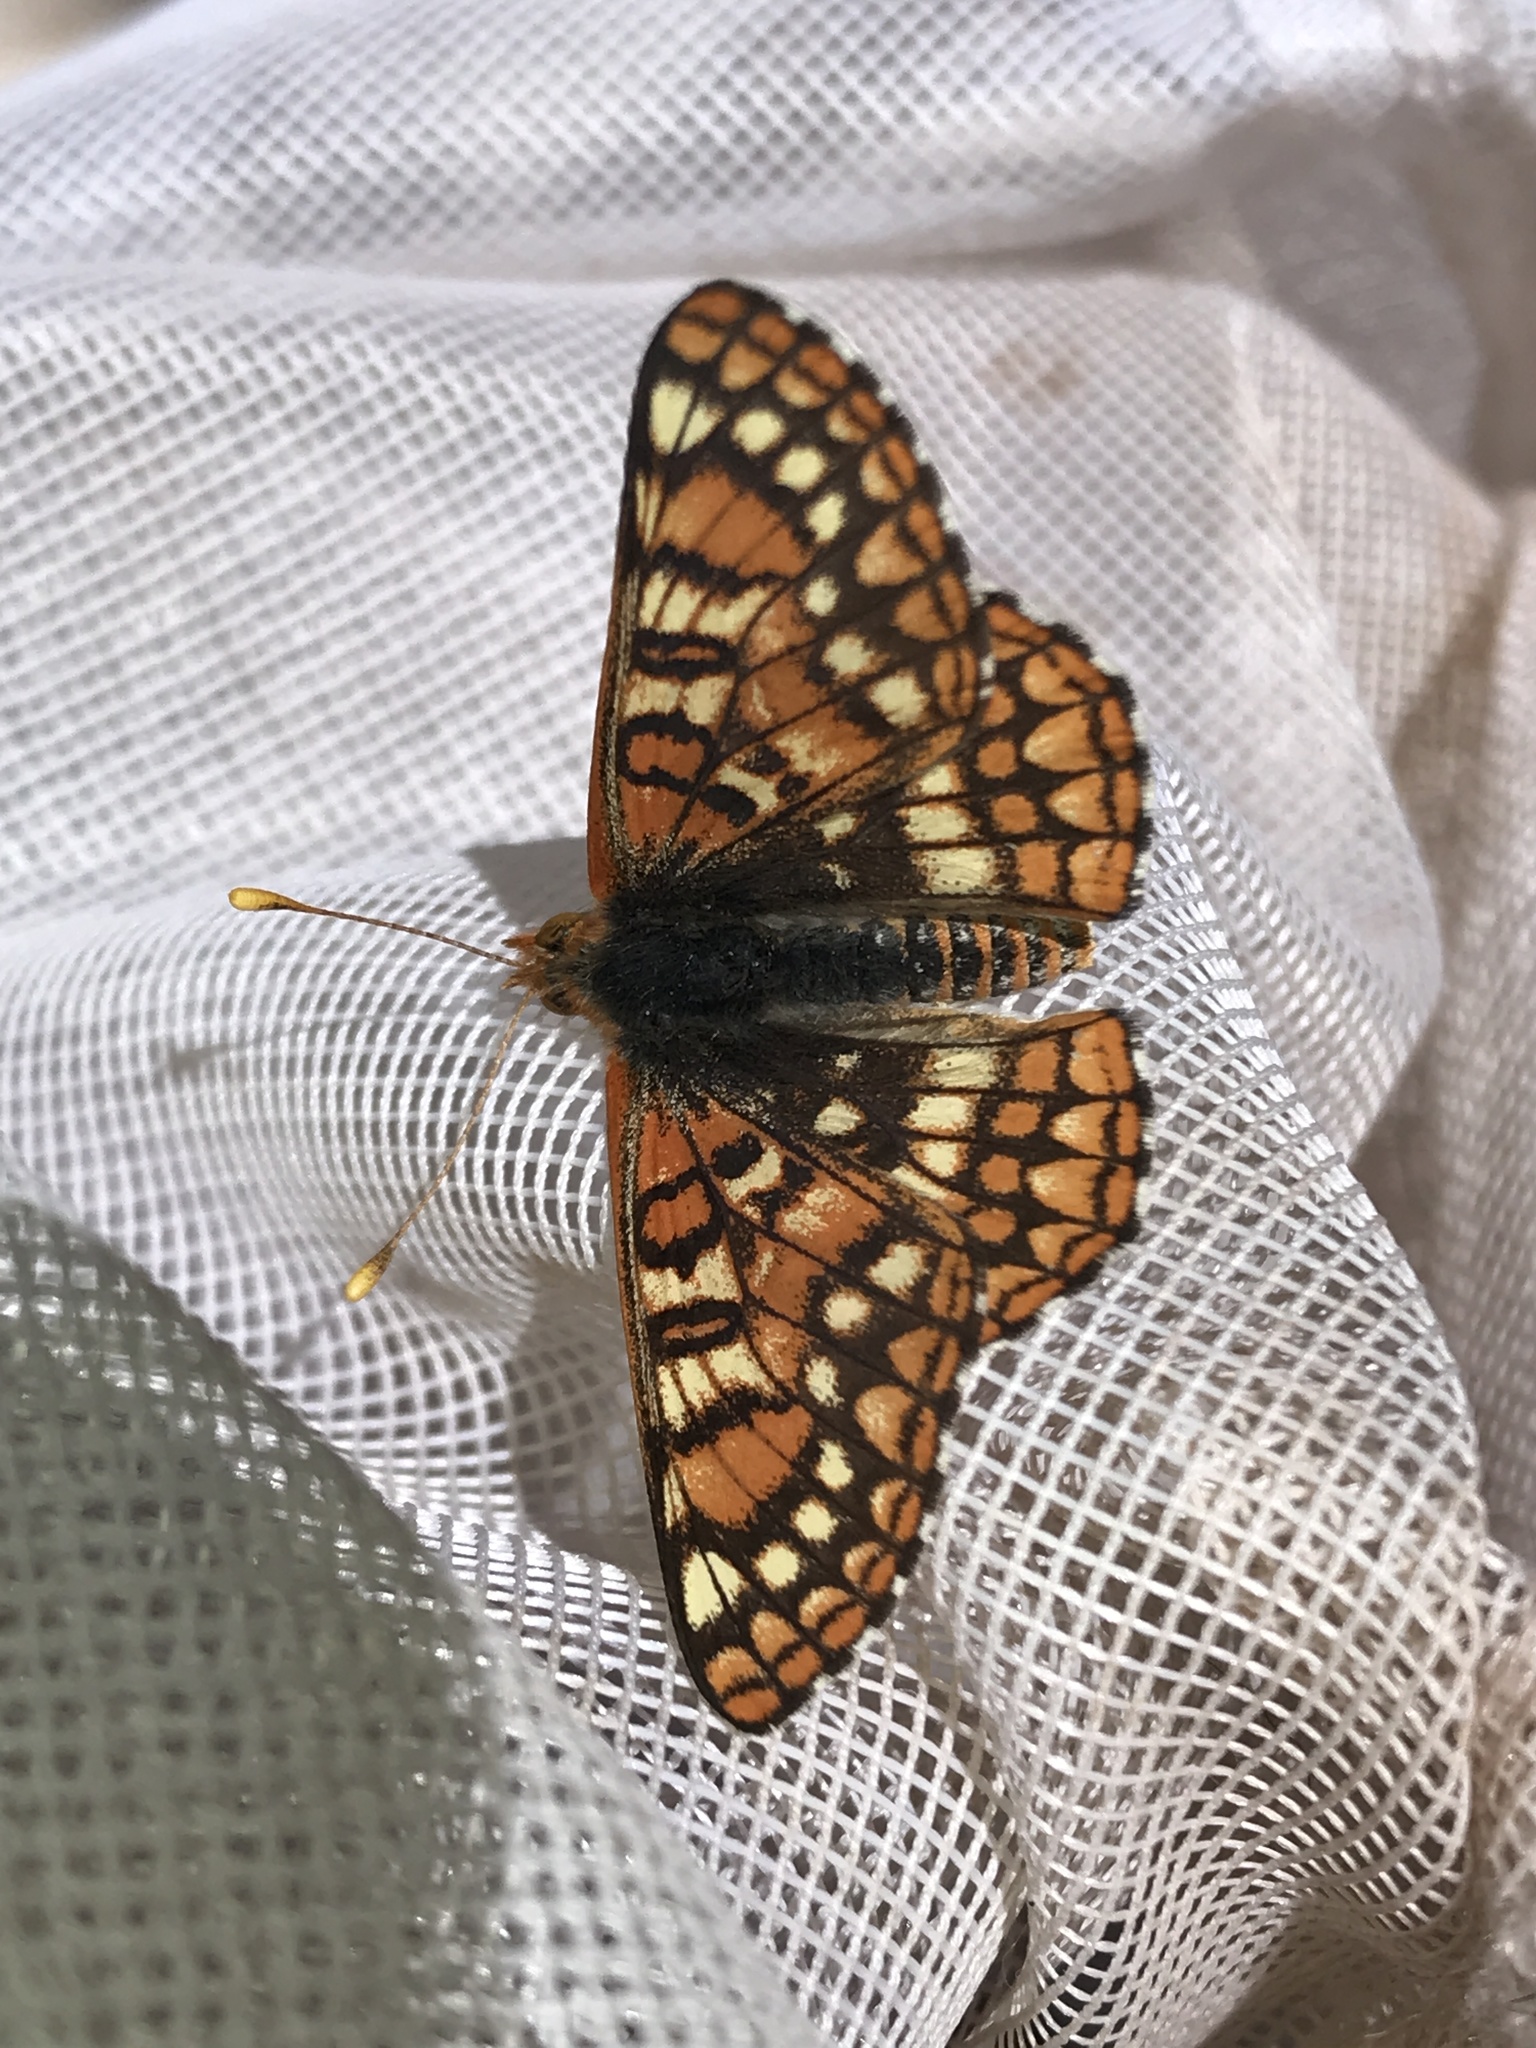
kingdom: Animalia
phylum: Arthropoda
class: Insecta
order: Lepidoptera
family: Nymphalidae
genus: Occidryas
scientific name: Occidryas anicia
